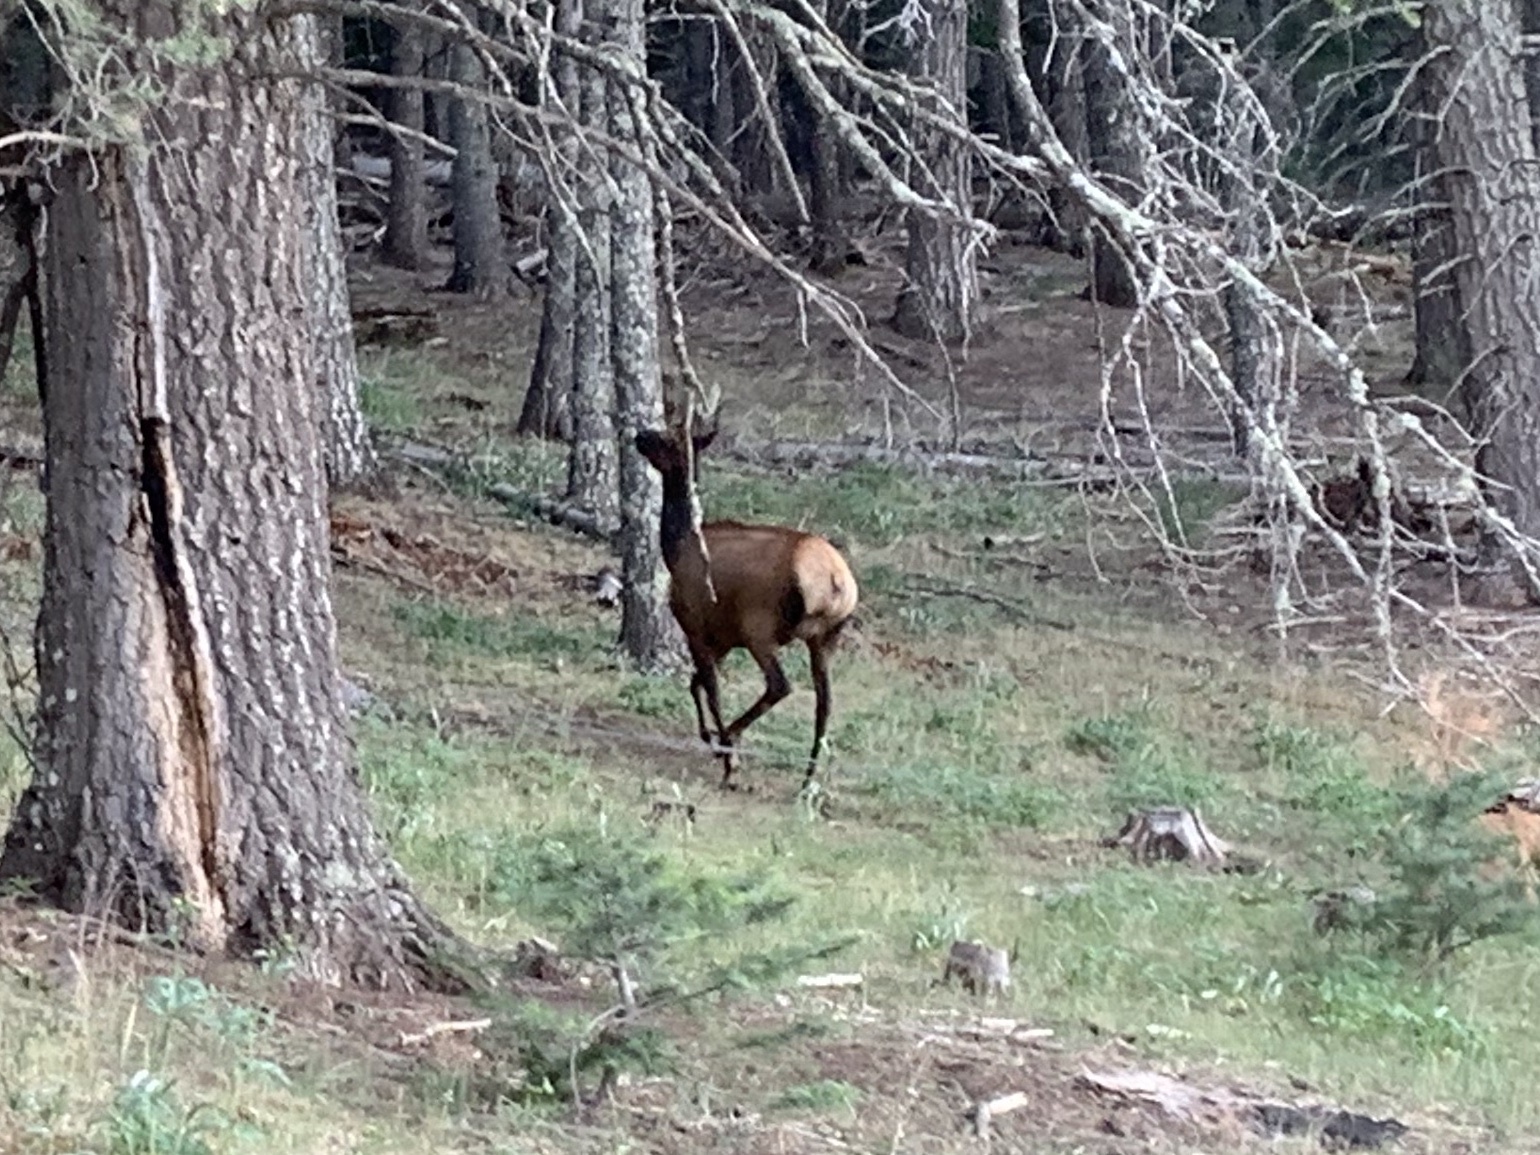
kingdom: Animalia
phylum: Chordata
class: Mammalia
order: Artiodactyla
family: Cervidae
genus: Cervus
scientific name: Cervus elaphus
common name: Red deer
